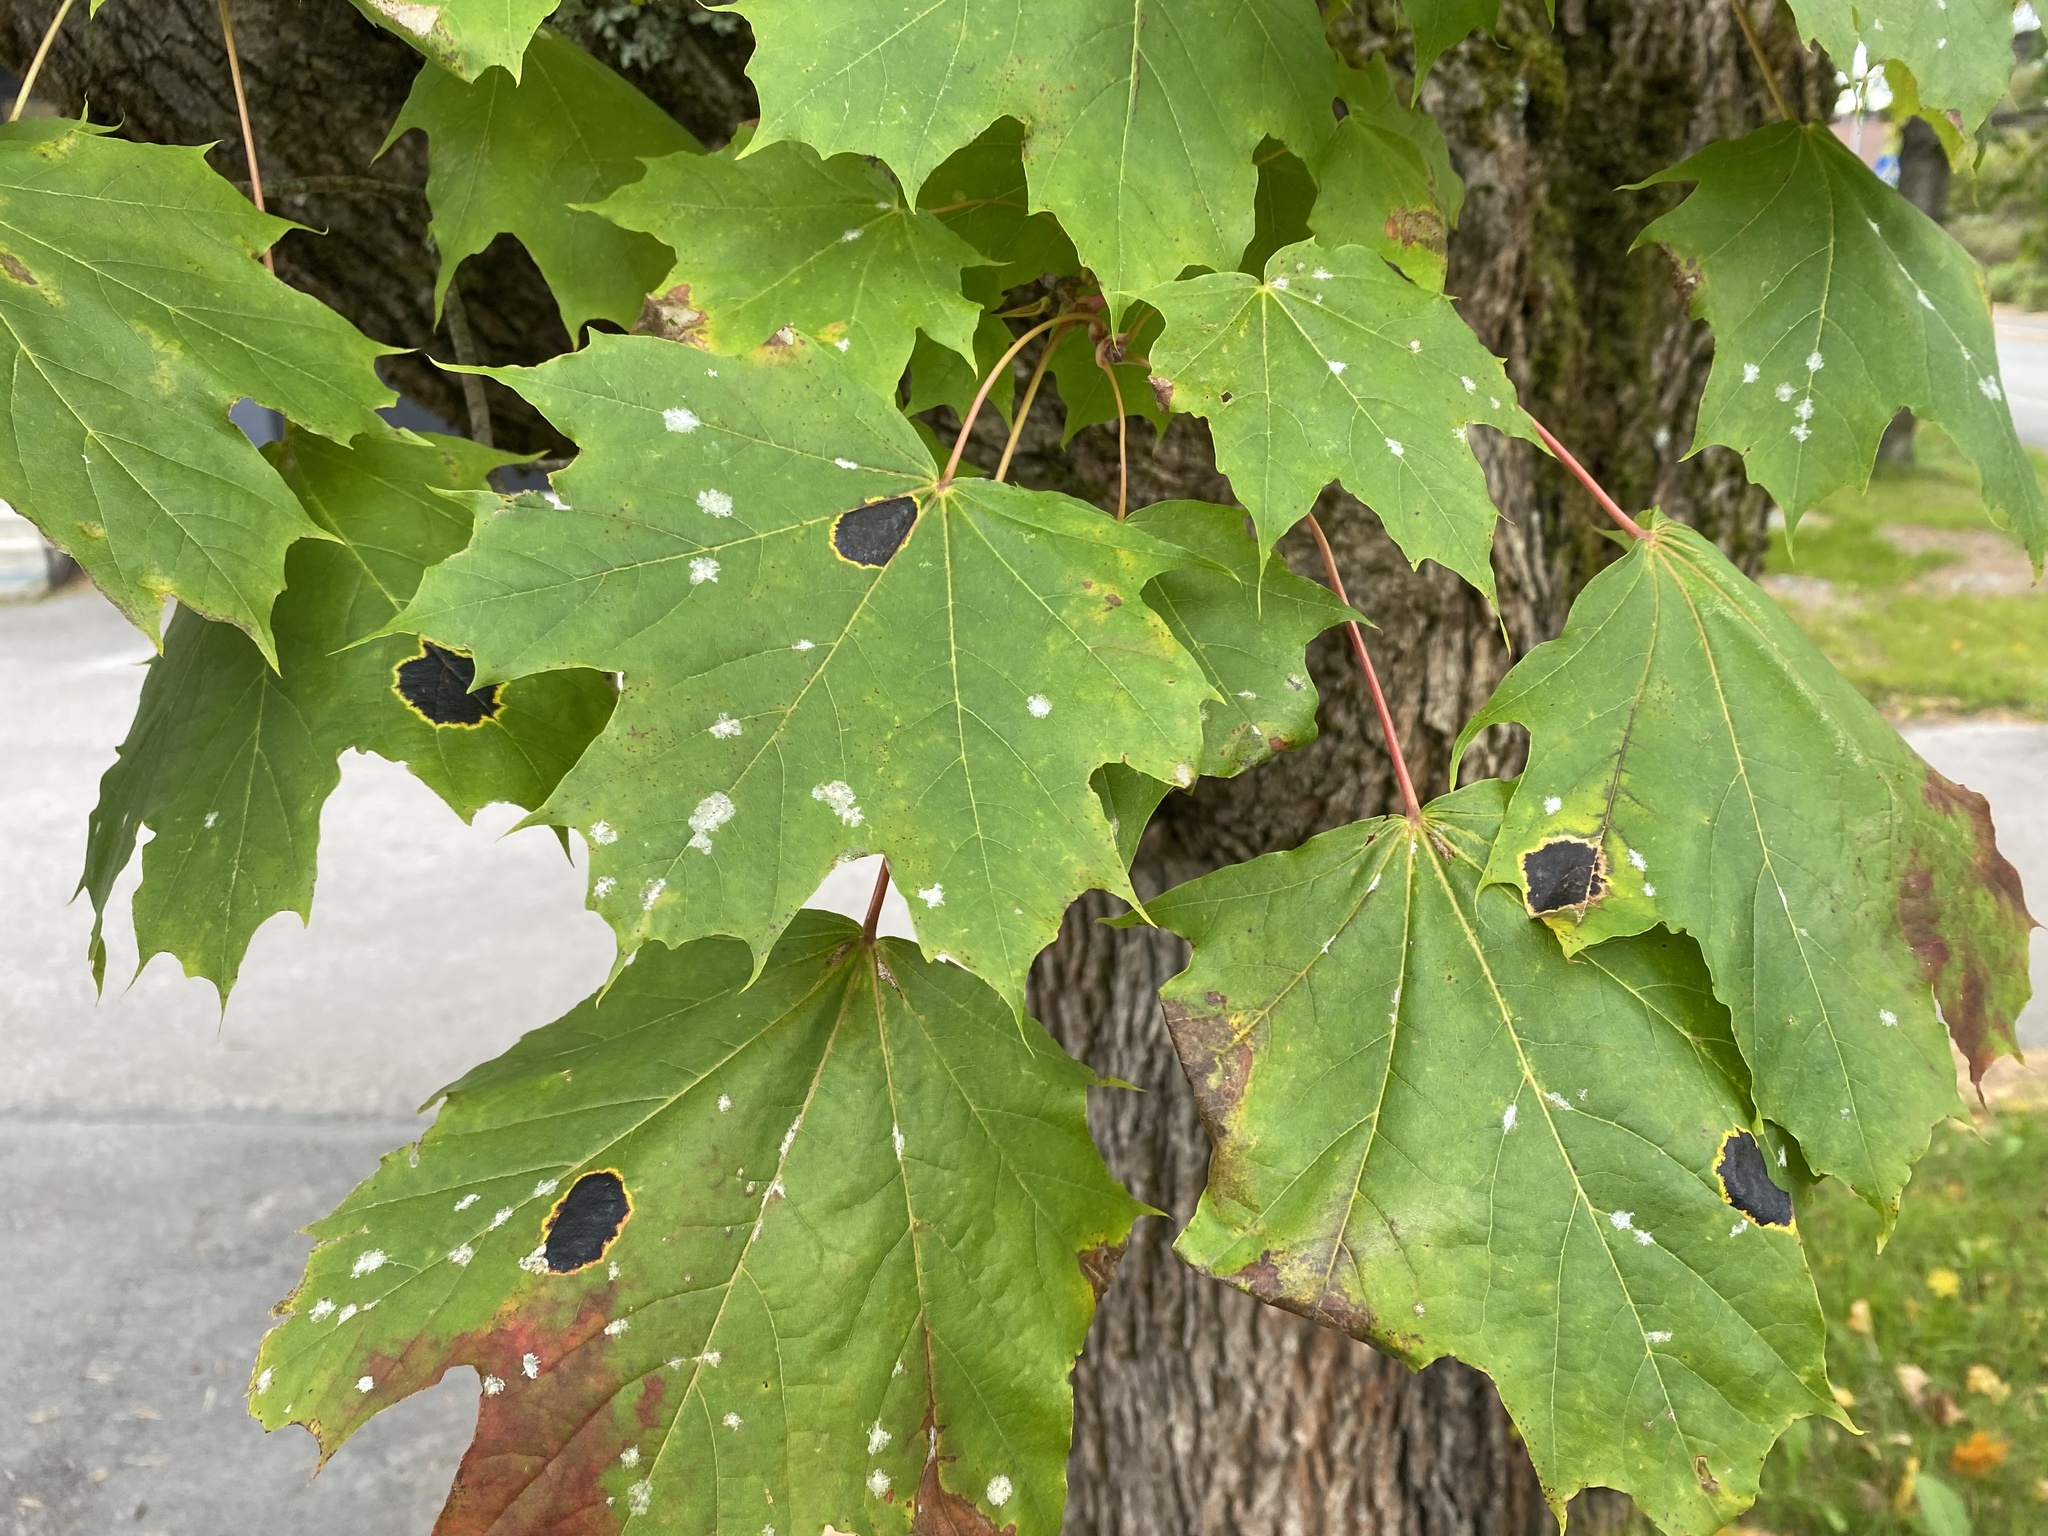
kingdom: Fungi
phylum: Ascomycota
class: Leotiomycetes
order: Rhytismatales
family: Rhytismataceae
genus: Rhytisma
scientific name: Rhytisma acerinum
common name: European tar spot
